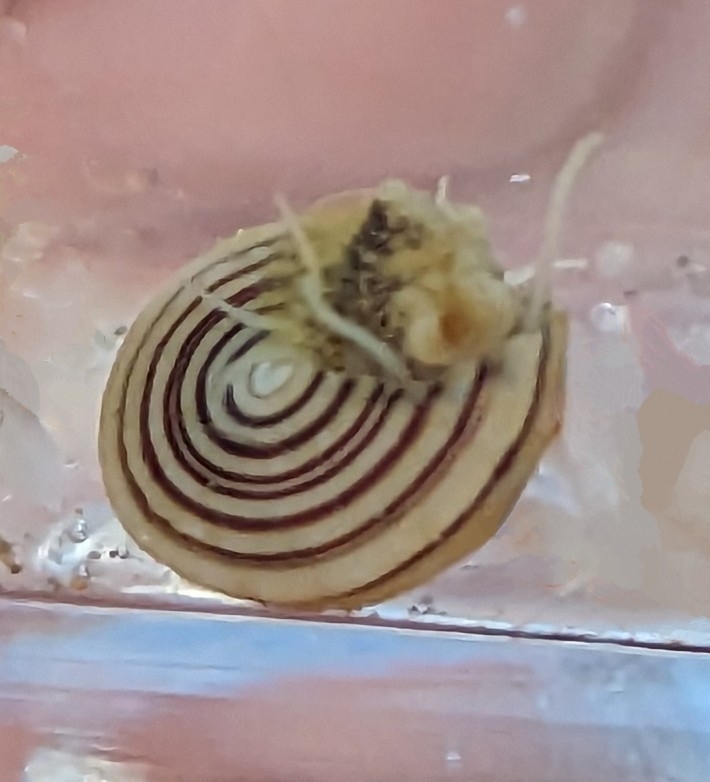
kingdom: Animalia
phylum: Mollusca
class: Gastropoda
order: Trochida
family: Calliostomatidae
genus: Calliostoma
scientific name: Calliostoma canaliculatum
